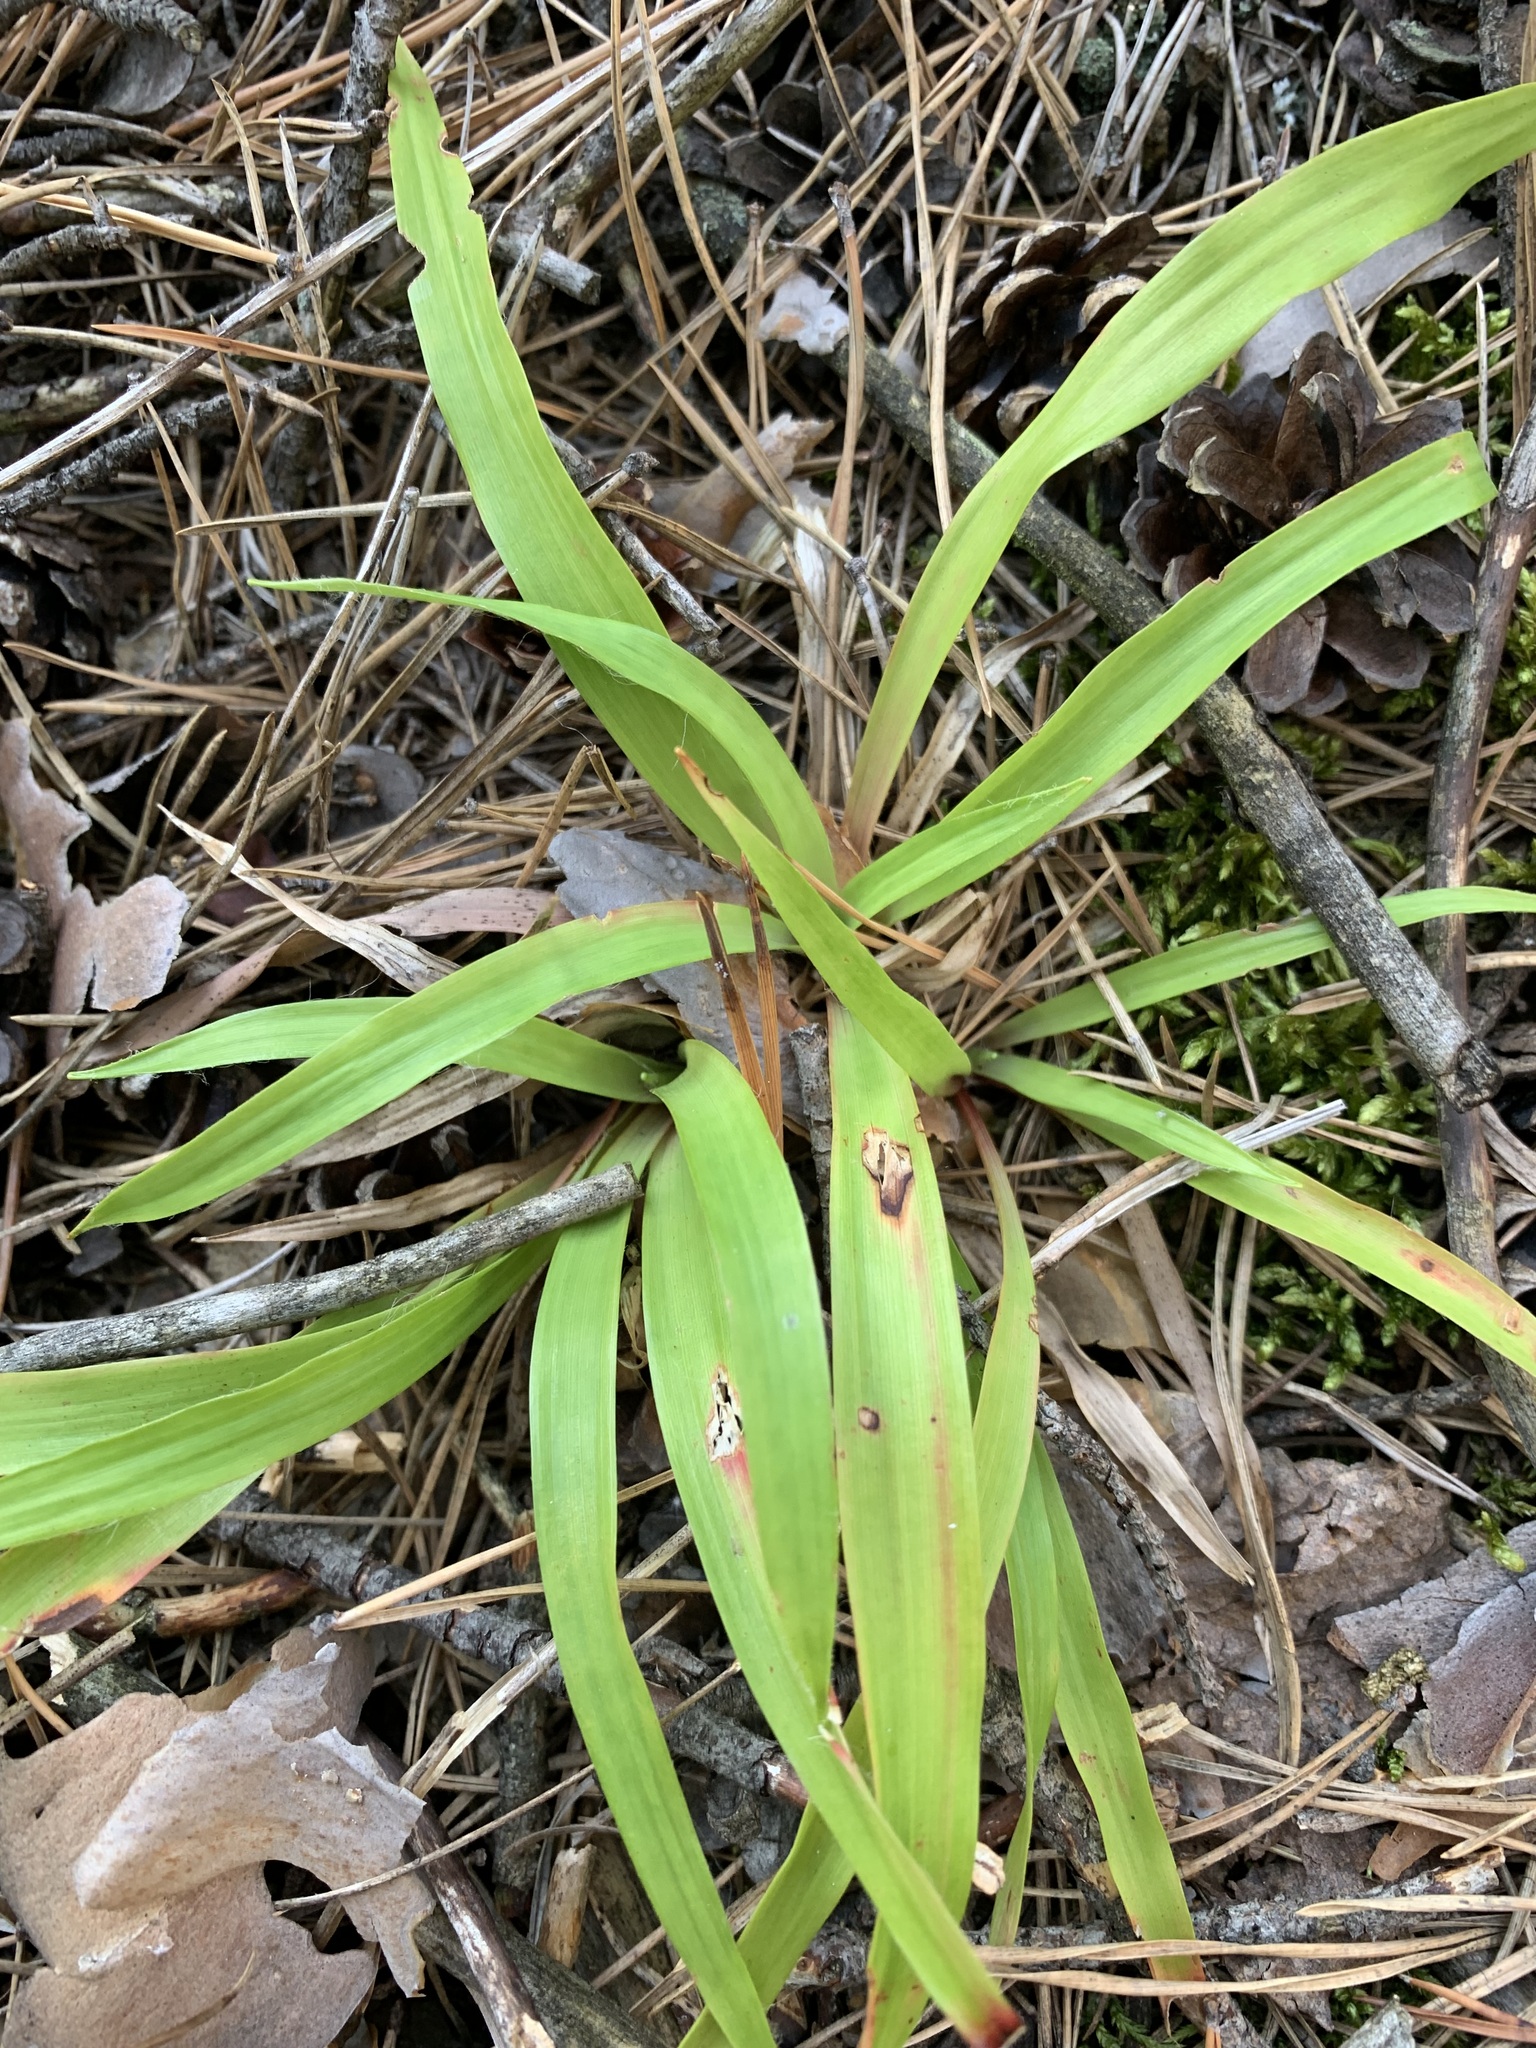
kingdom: Plantae
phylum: Tracheophyta
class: Liliopsida
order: Poales
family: Juncaceae
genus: Luzula
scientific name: Luzula pilosa
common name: Hairy wood-rush
